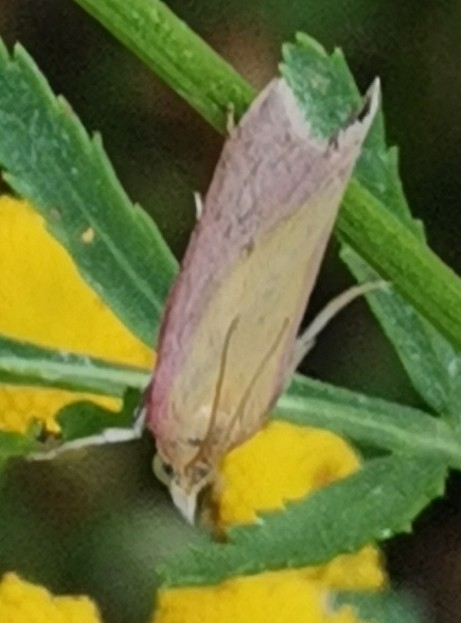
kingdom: Animalia
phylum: Arthropoda
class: Insecta
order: Lepidoptera
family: Pyralidae
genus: Oncocera
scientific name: Oncocera semirubella
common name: Rosy-striped knot-horn
